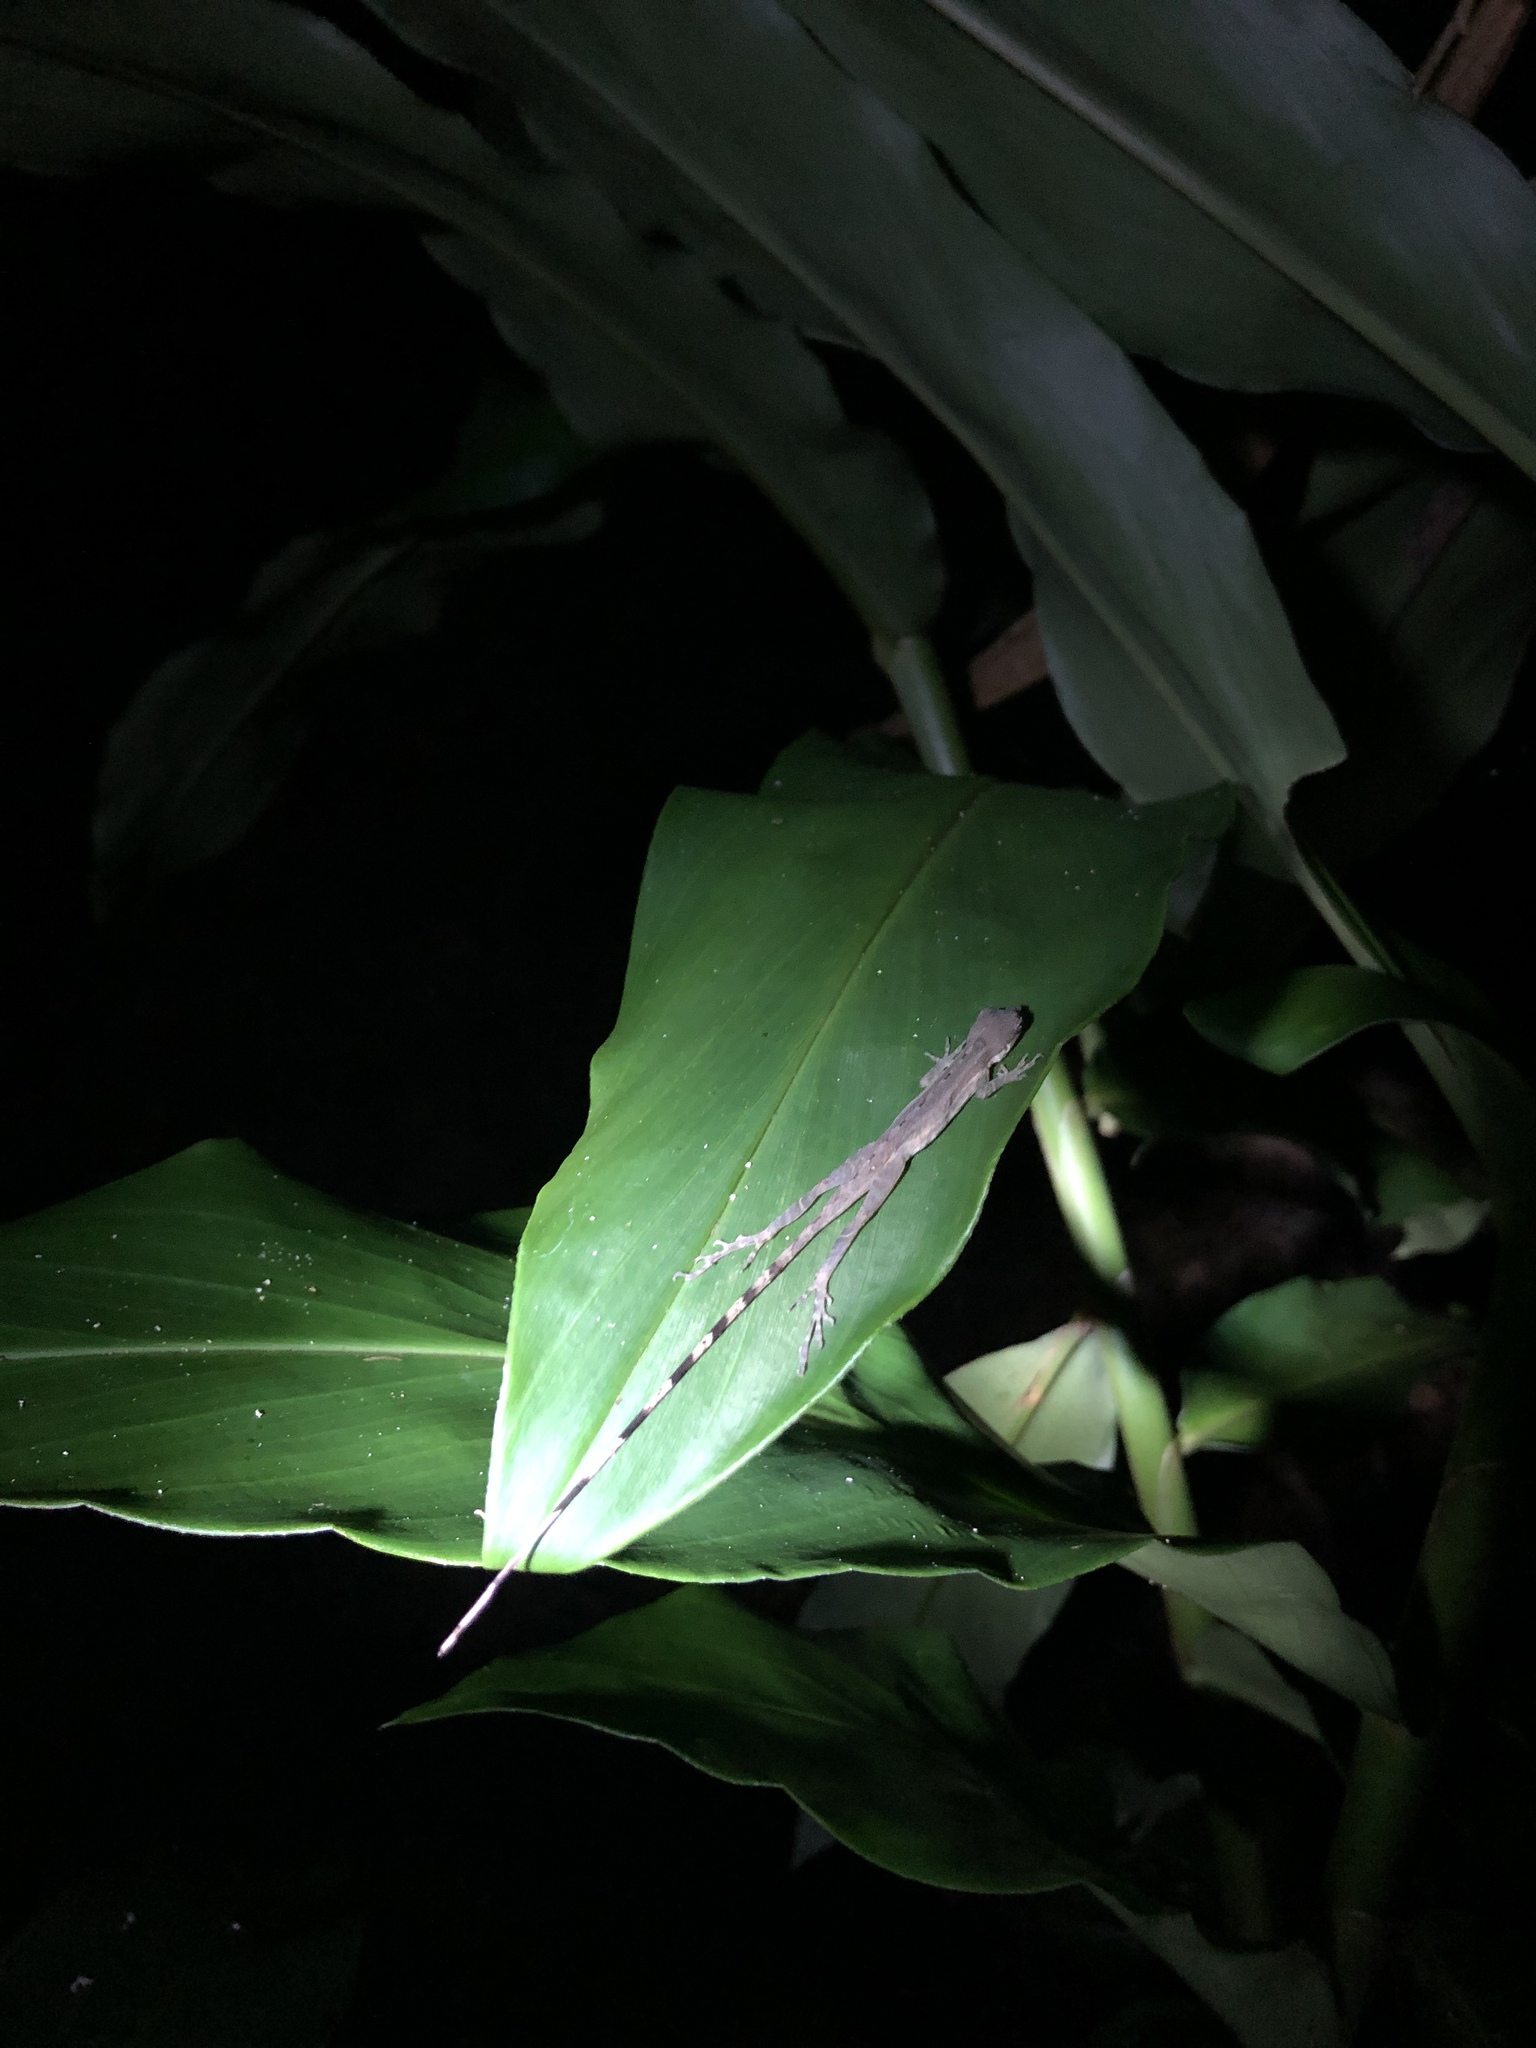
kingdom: Animalia
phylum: Chordata
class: Squamata
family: Dactyloidae
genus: Anolis
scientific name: Anolis limifrons
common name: Border anole
